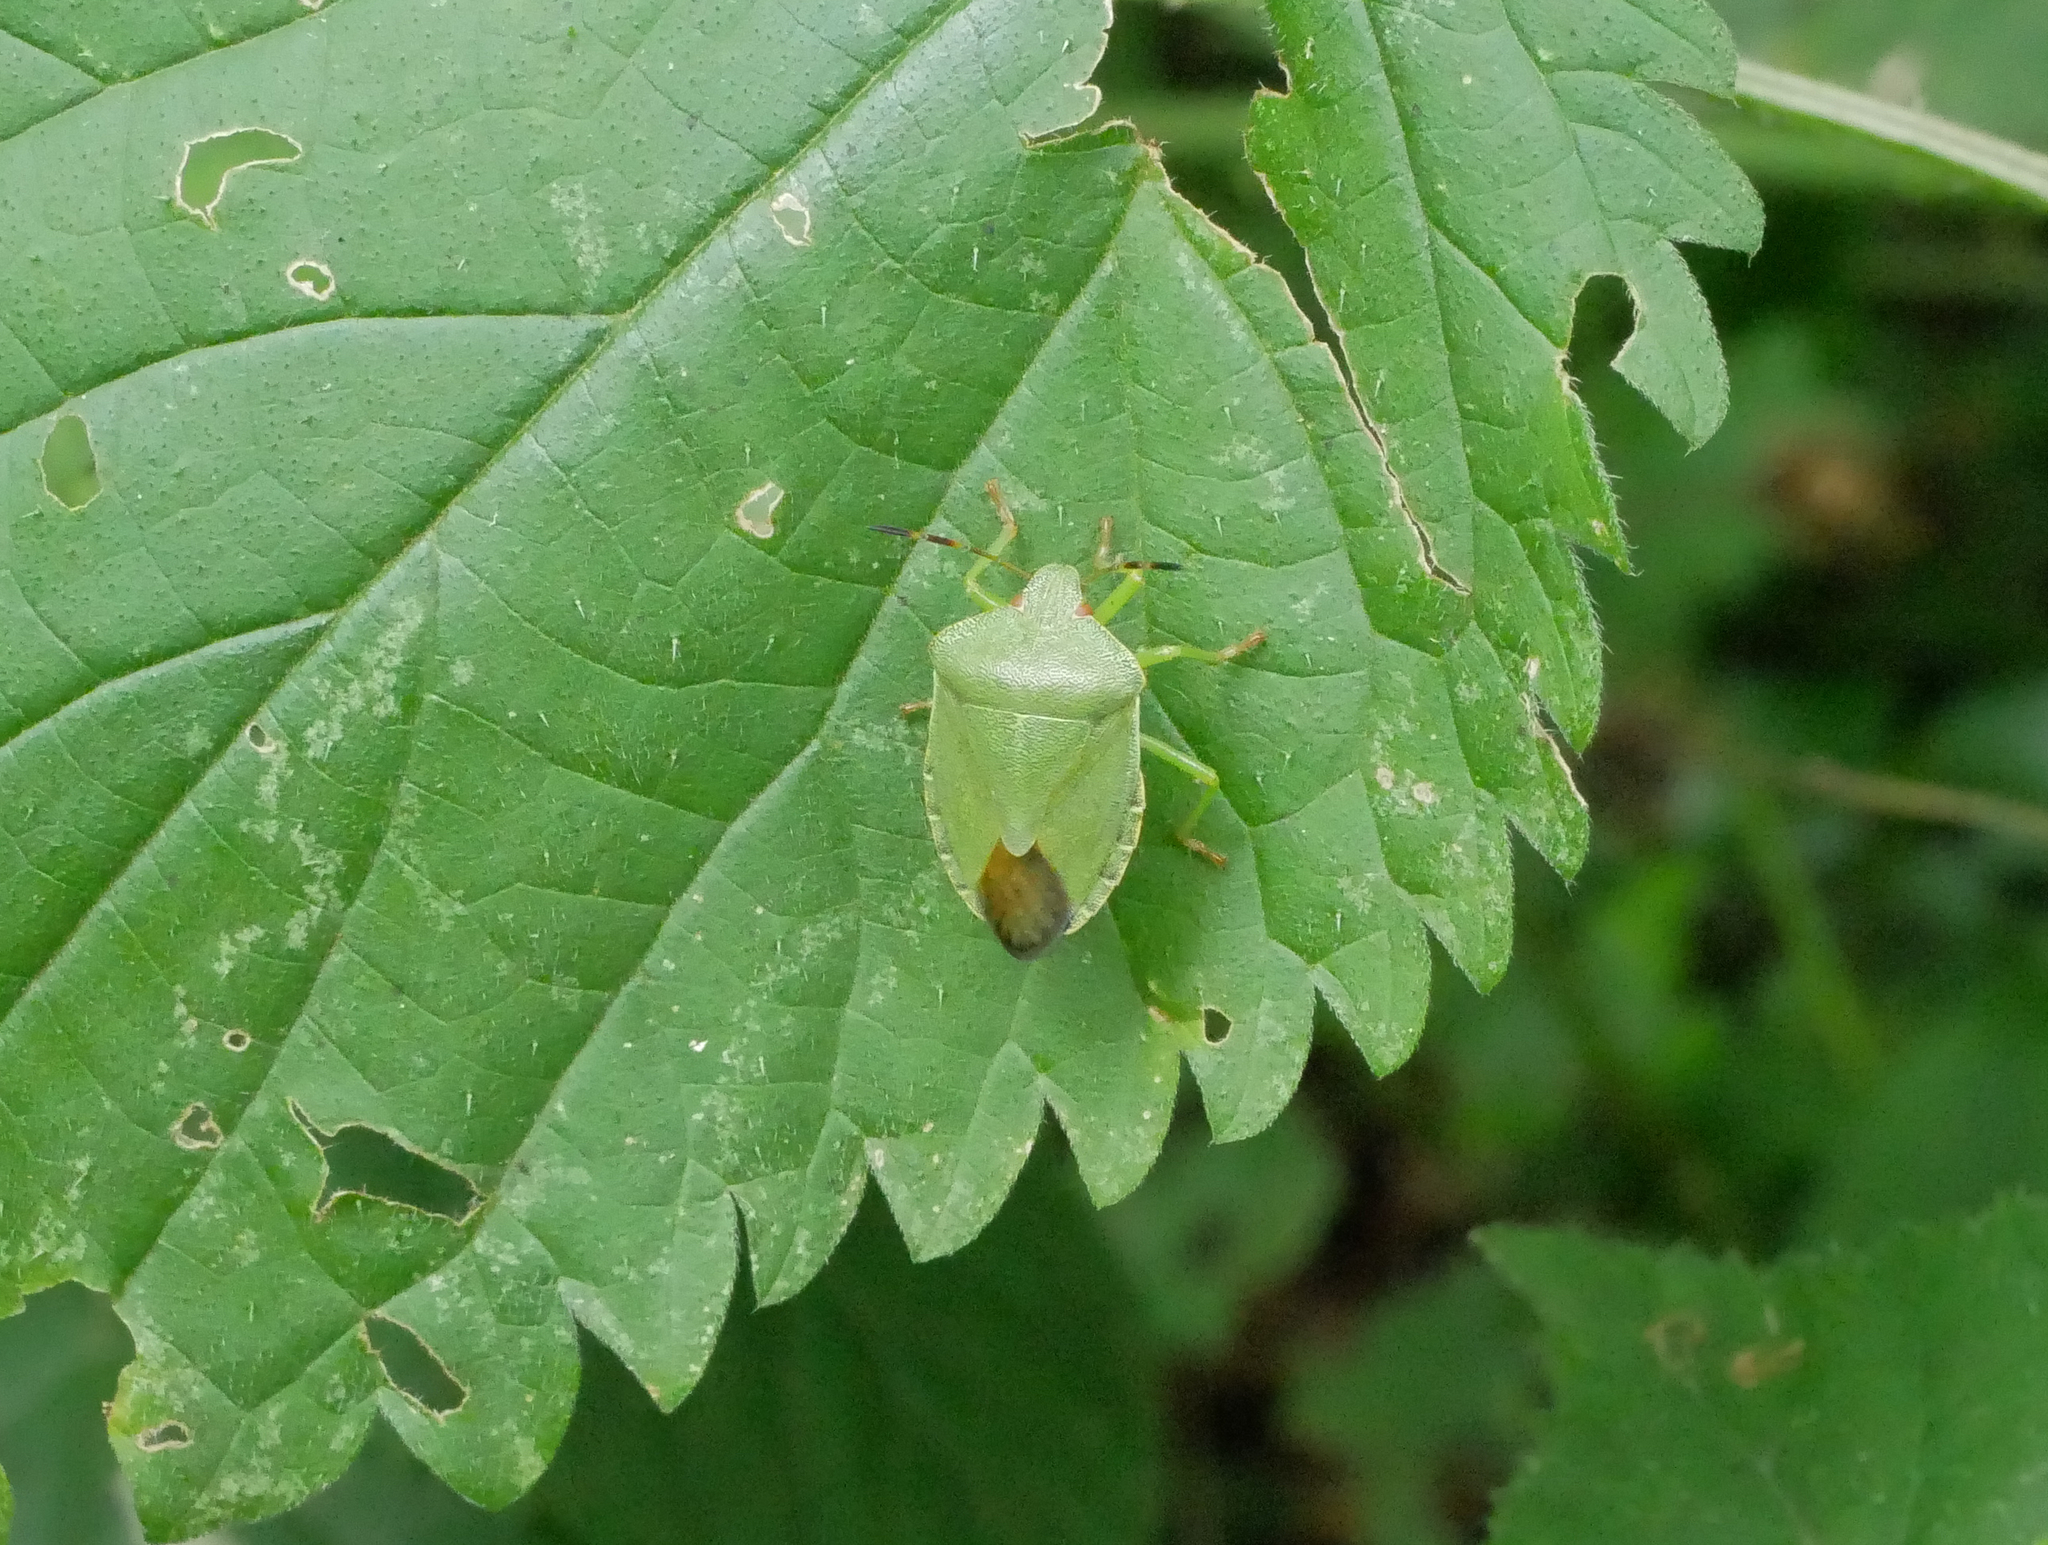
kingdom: Animalia
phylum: Arthropoda
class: Insecta
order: Hemiptera
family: Pentatomidae
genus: Palomena
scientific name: Palomena prasina
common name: Green shieldbug
